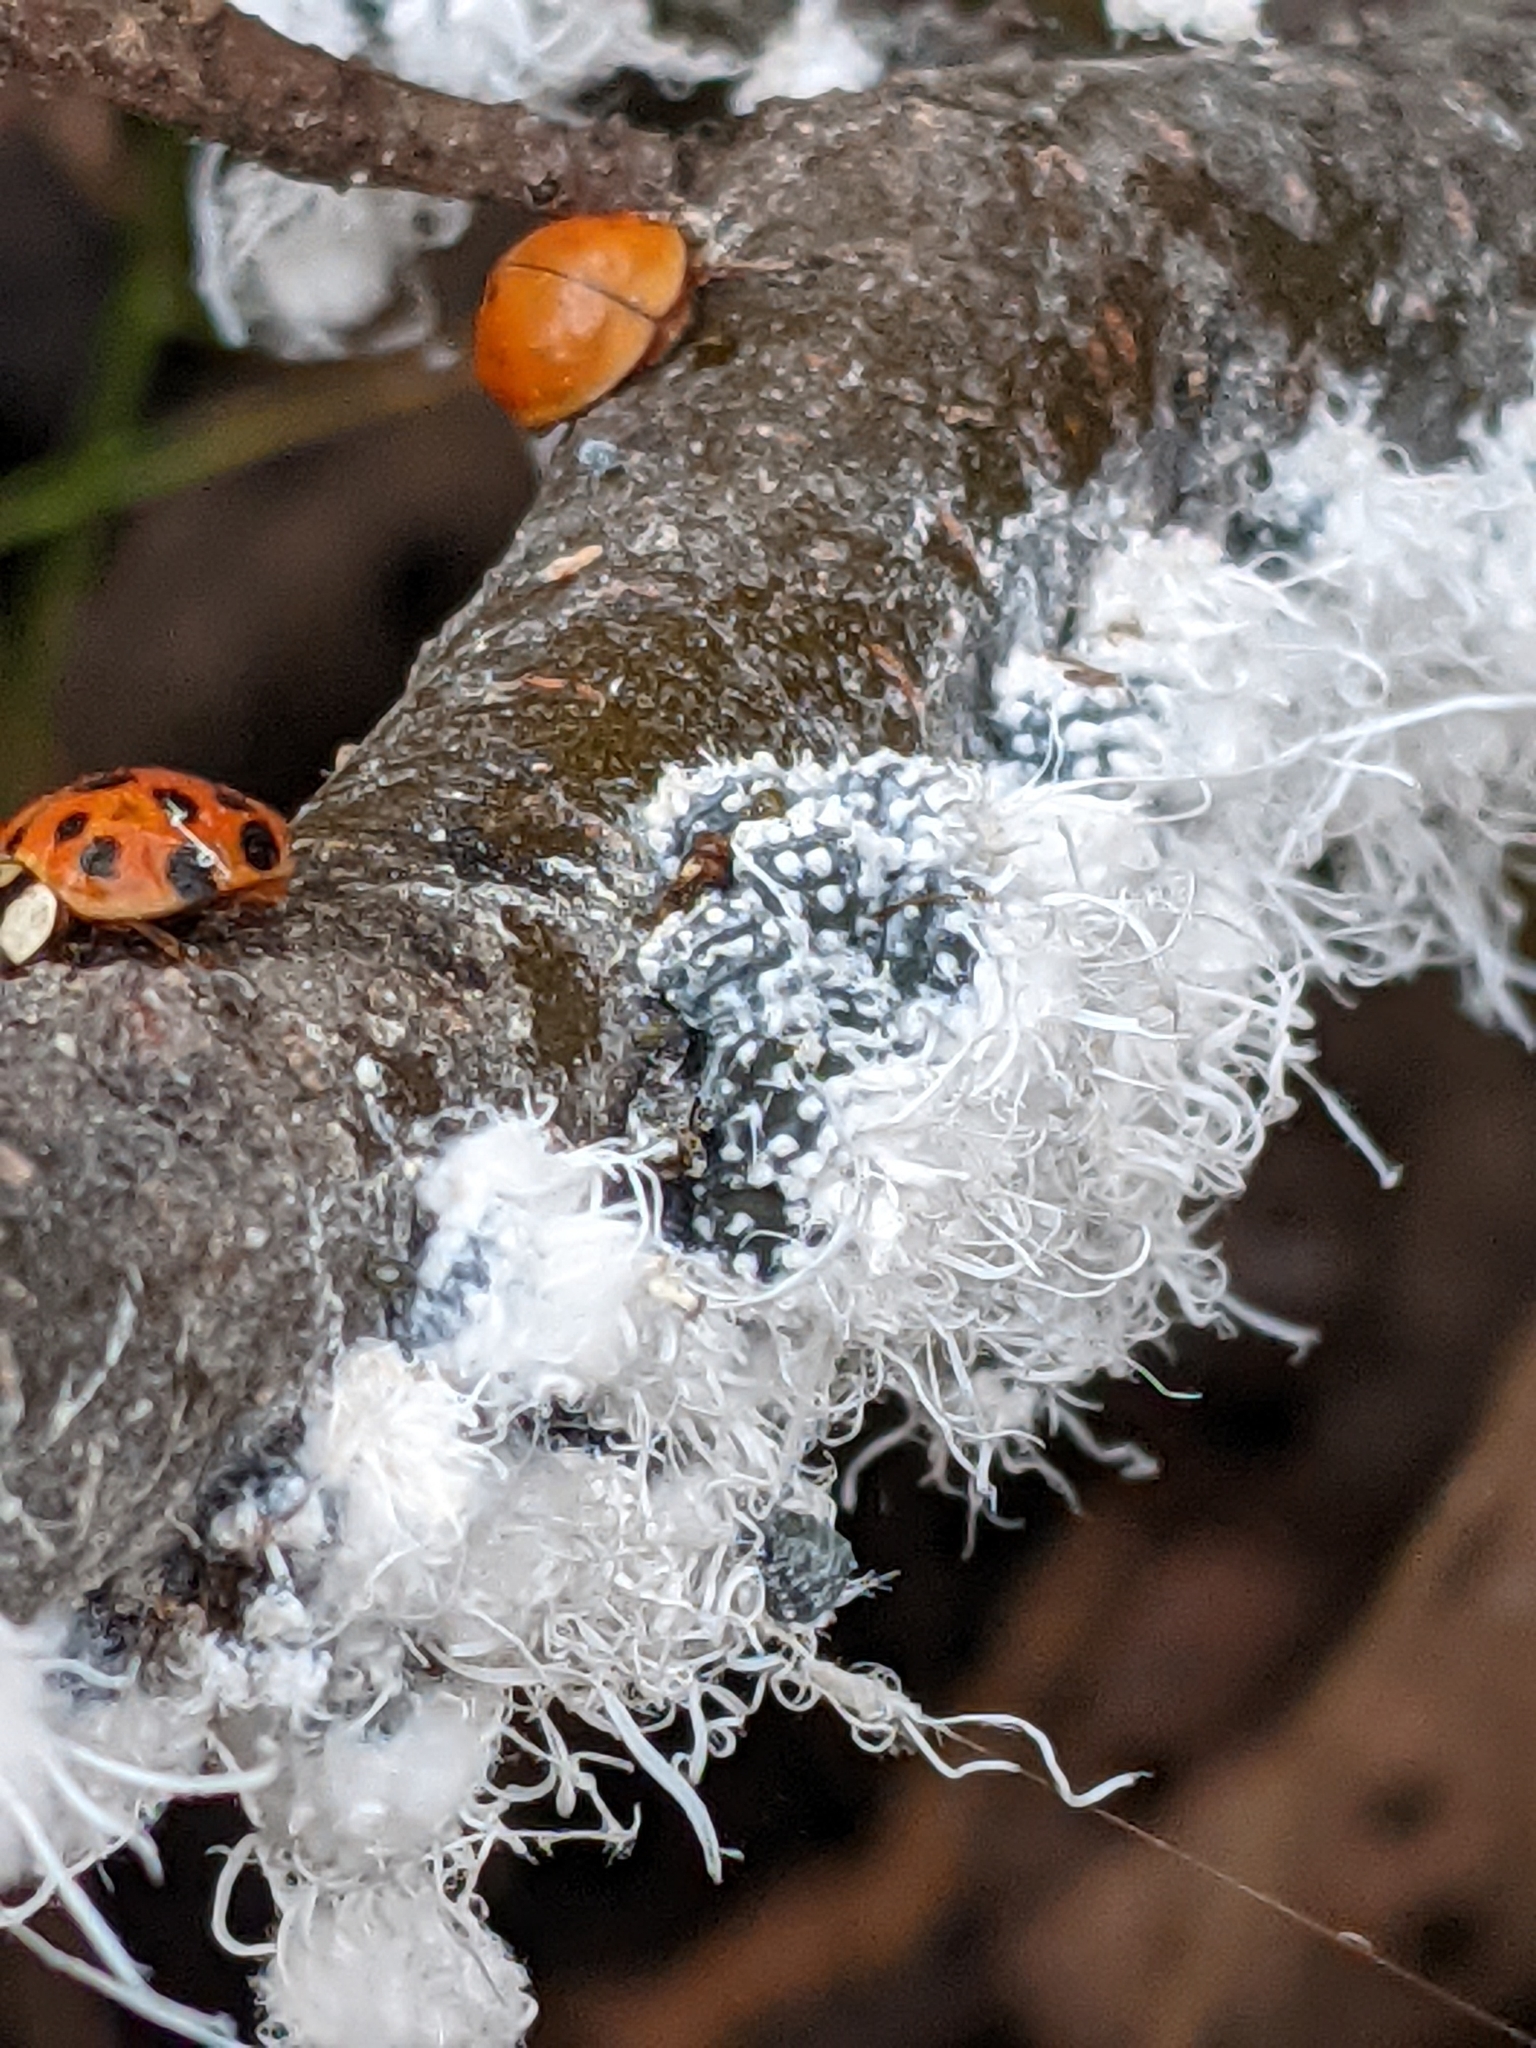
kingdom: Animalia
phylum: Arthropoda
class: Insecta
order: Hemiptera
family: Aphididae
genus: Prociphilus
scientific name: Prociphilus tessellatus
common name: Woolly alder aphid
